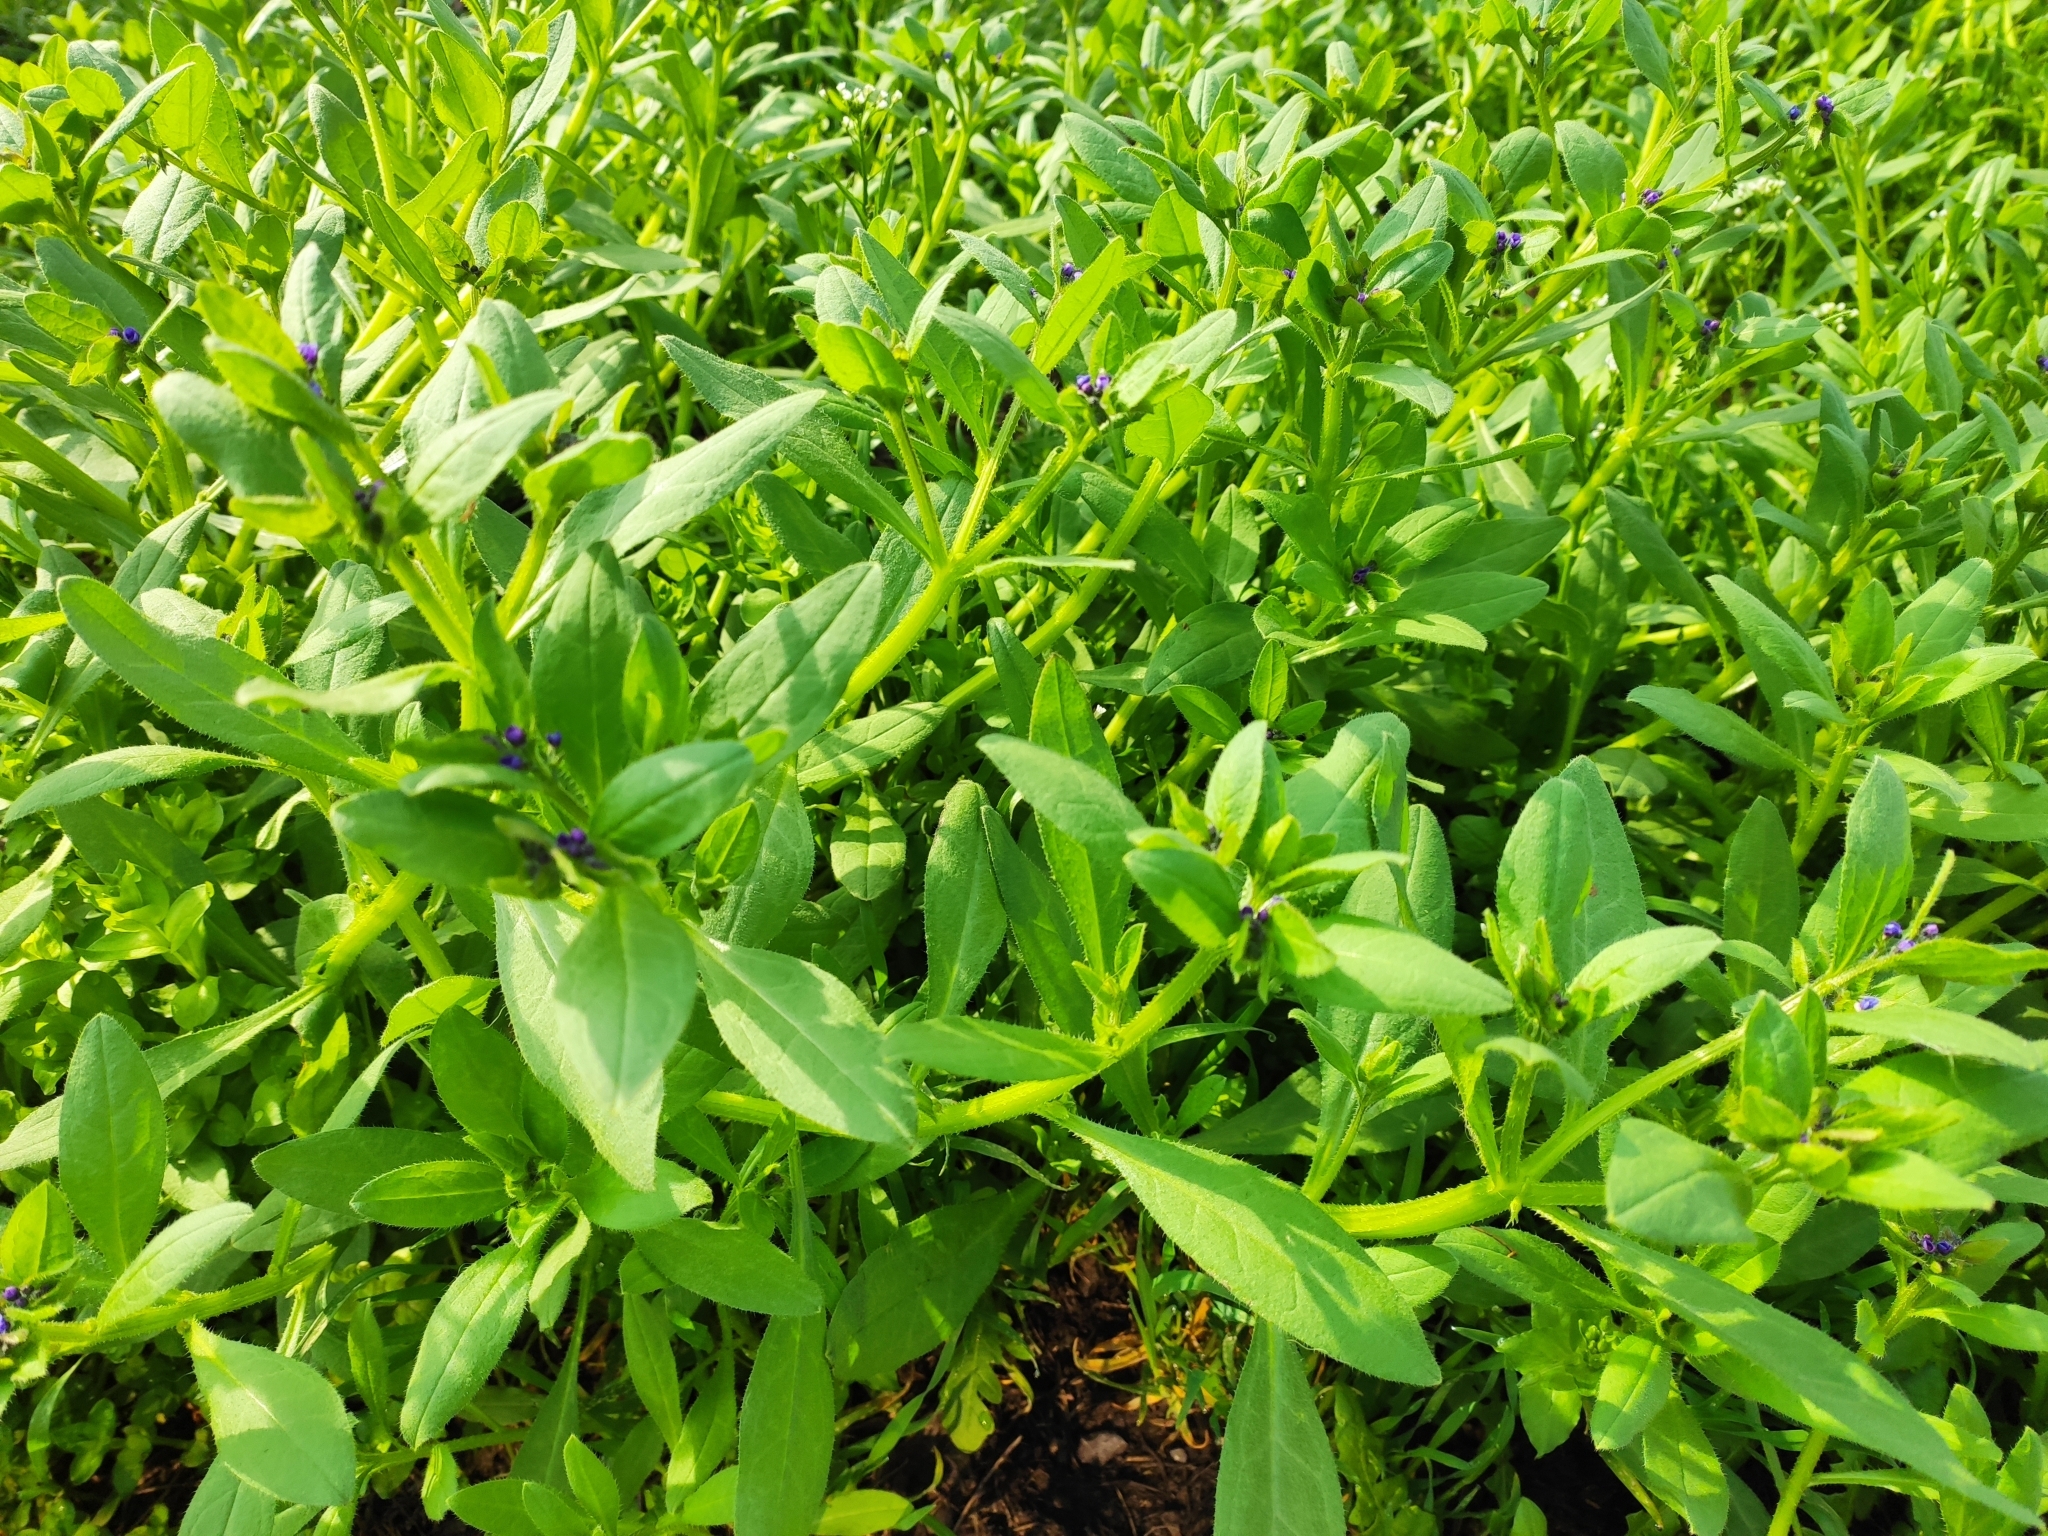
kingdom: Plantae
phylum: Tracheophyta
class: Magnoliopsida
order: Boraginales
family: Boraginaceae
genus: Asperugo
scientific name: Asperugo procumbens
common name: Madwort
